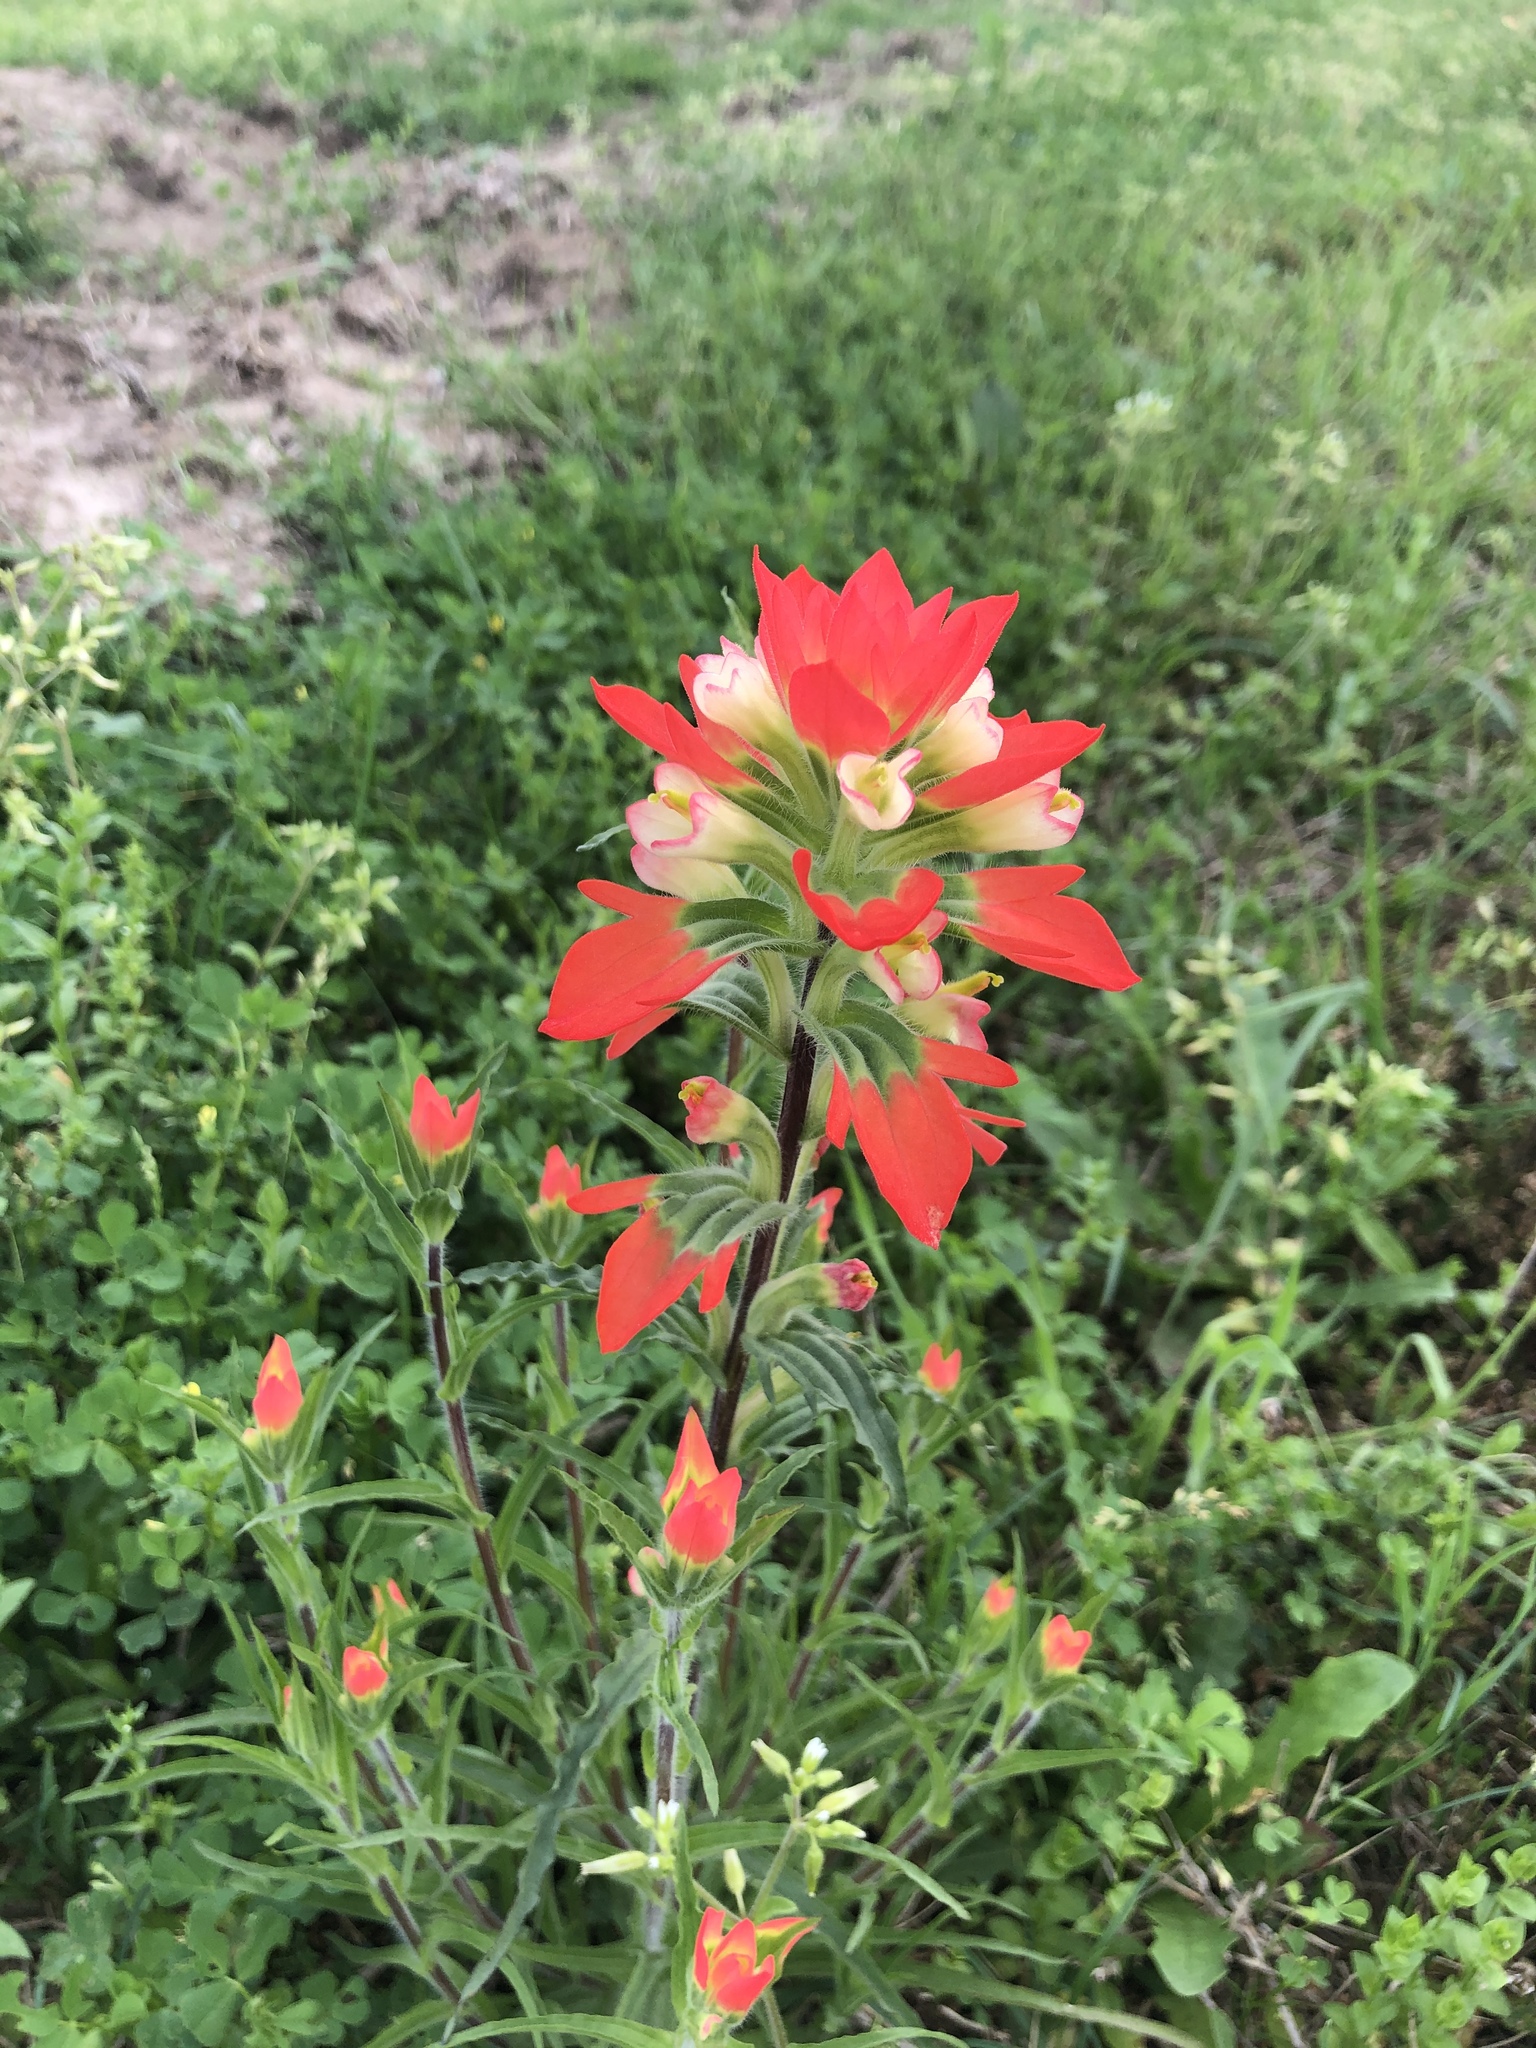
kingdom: Plantae
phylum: Tracheophyta
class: Magnoliopsida
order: Lamiales
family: Orobanchaceae
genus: Castilleja
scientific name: Castilleja indivisa
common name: Texas paintbrush
